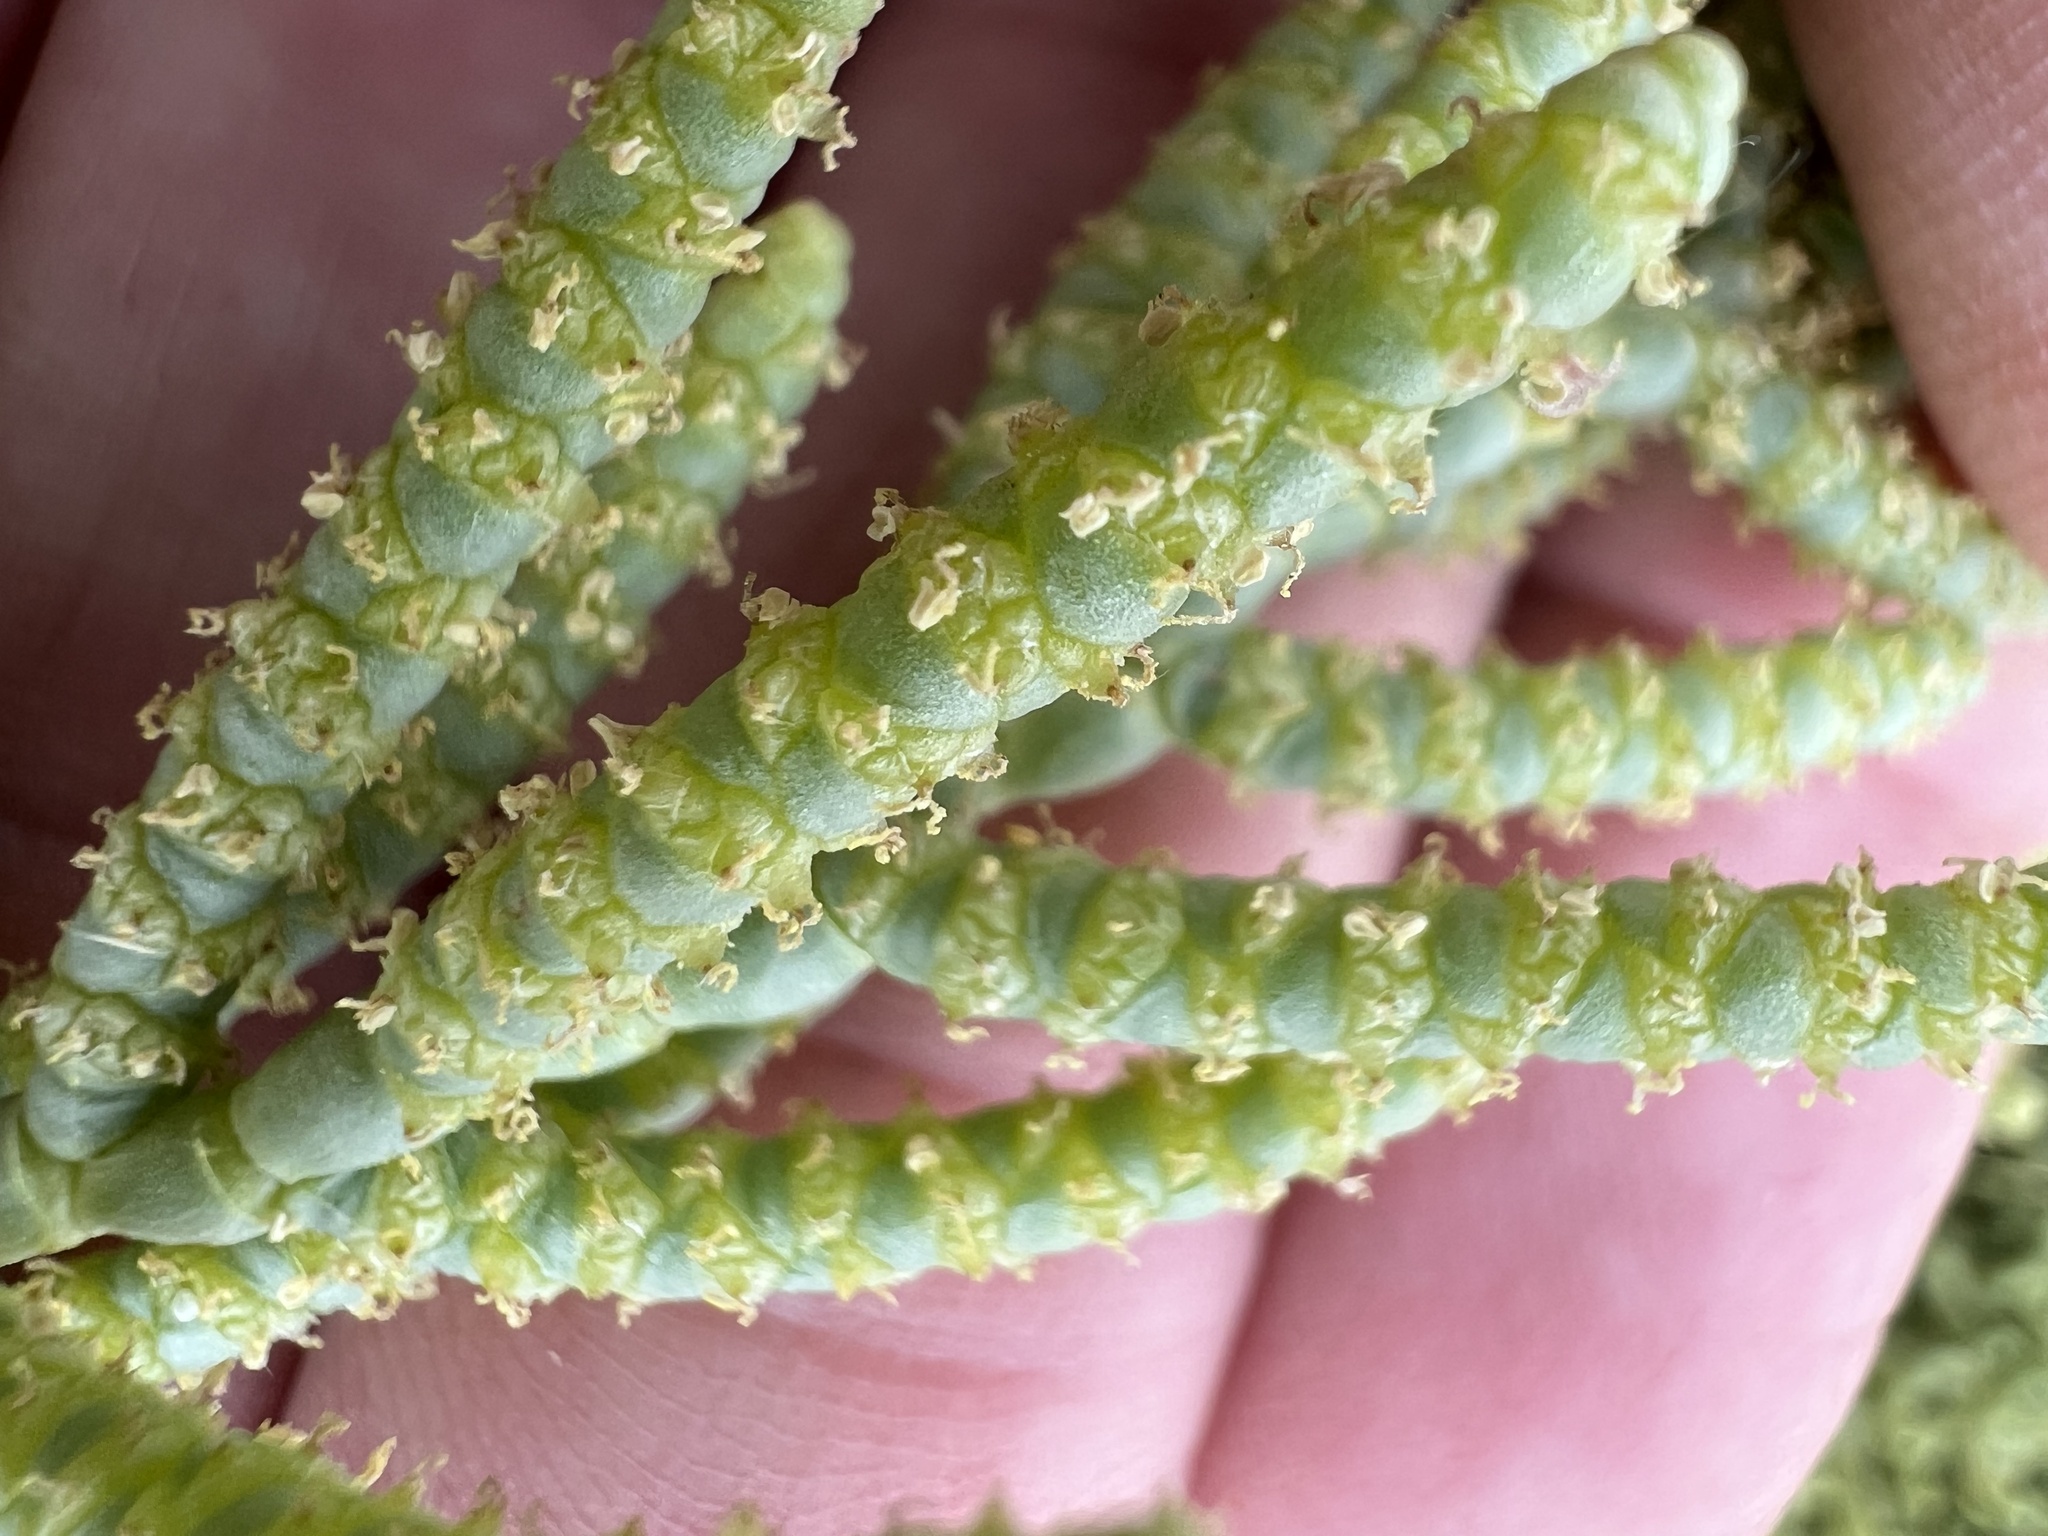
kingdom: Plantae
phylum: Tracheophyta
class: Magnoliopsida
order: Caryophyllales
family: Amaranthaceae
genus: Allenrolfea
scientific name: Allenrolfea occidentalis
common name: Iodine-bush
